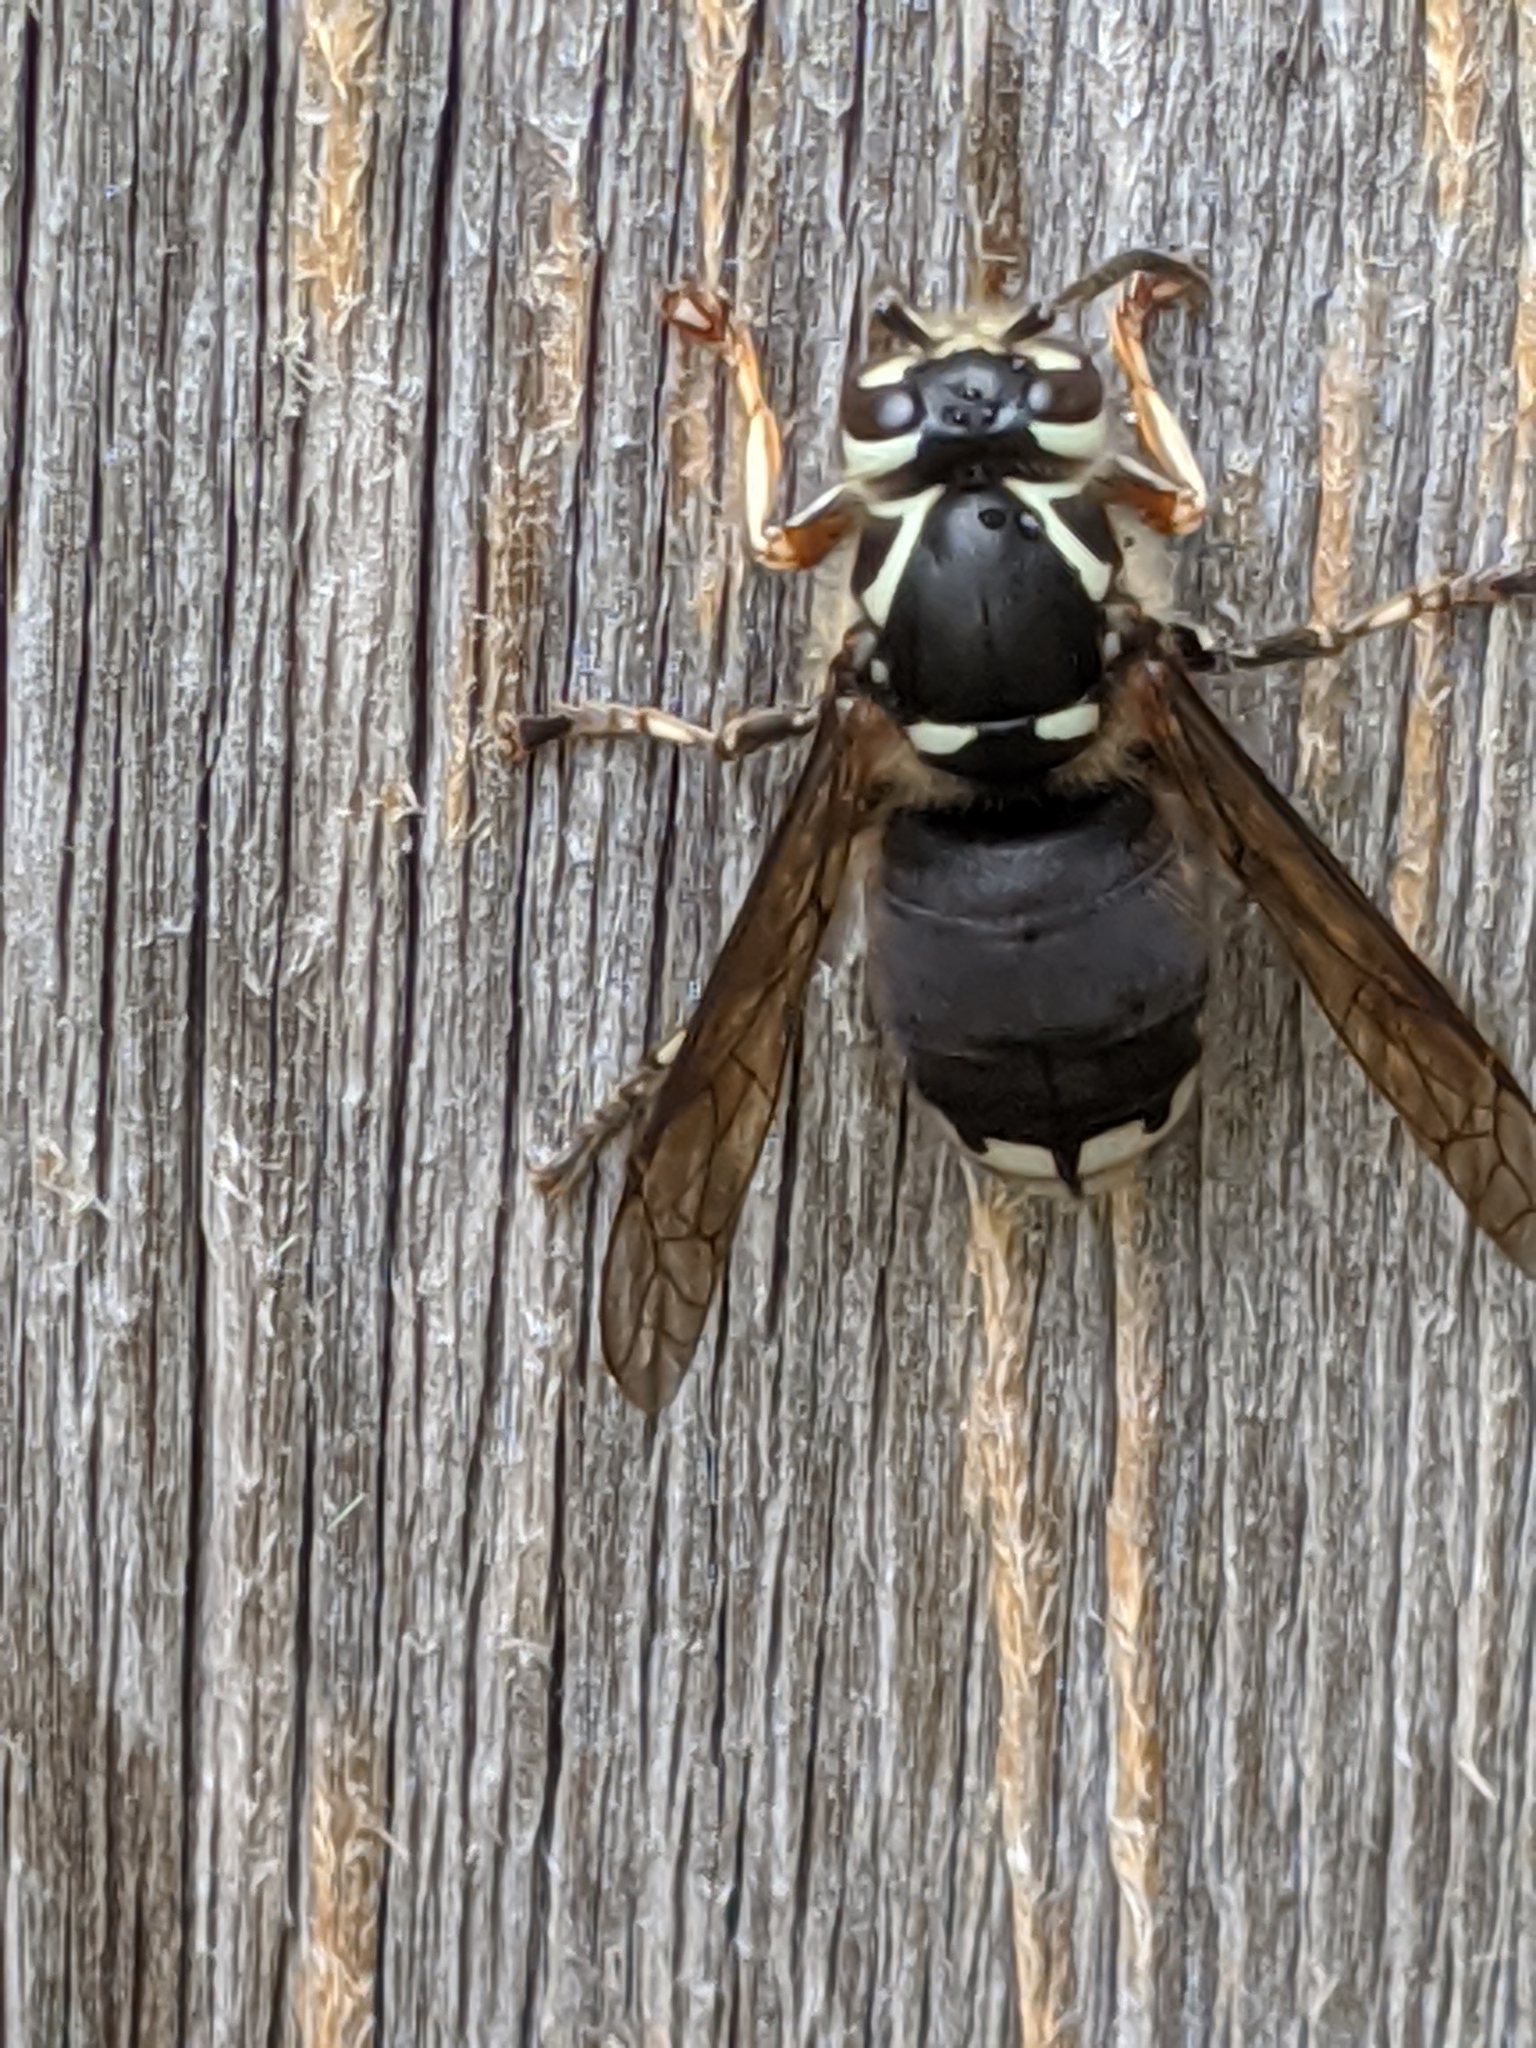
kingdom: Animalia
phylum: Arthropoda
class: Insecta
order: Hymenoptera
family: Vespidae
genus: Dolichovespula
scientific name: Dolichovespula maculata
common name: Bald-faced hornet
